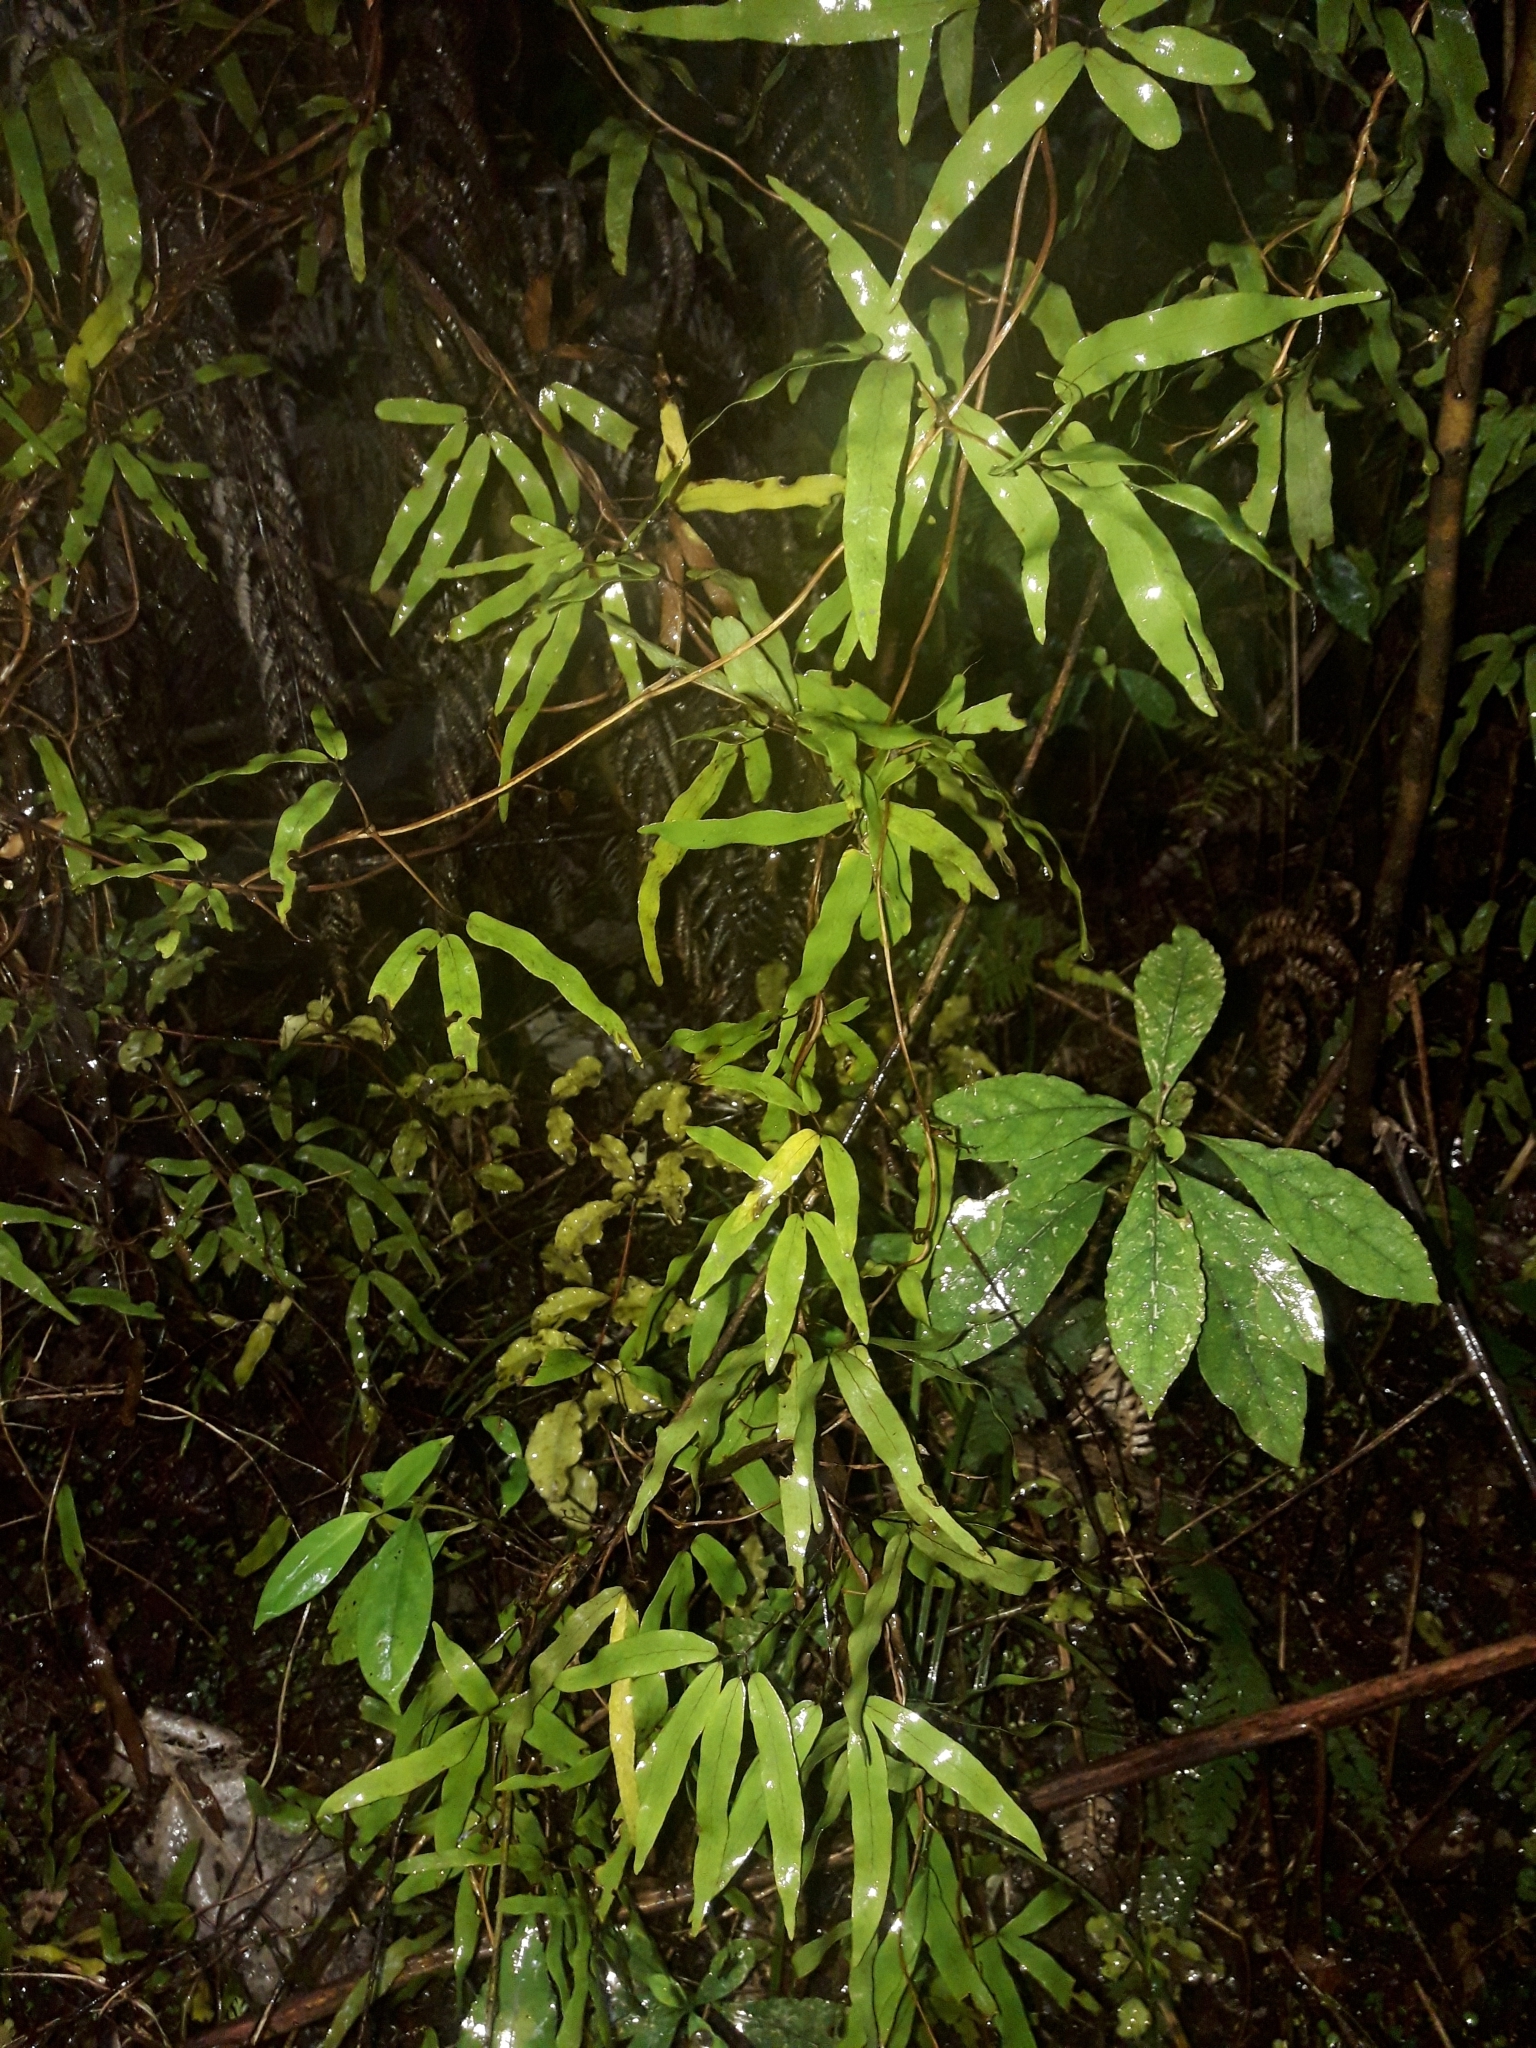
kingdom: Plantae
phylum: Tracheophyta
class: Polypodiopsida
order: Schizaeales
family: Lygodiaceae
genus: Lygodium
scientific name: Lygodium articulatum
